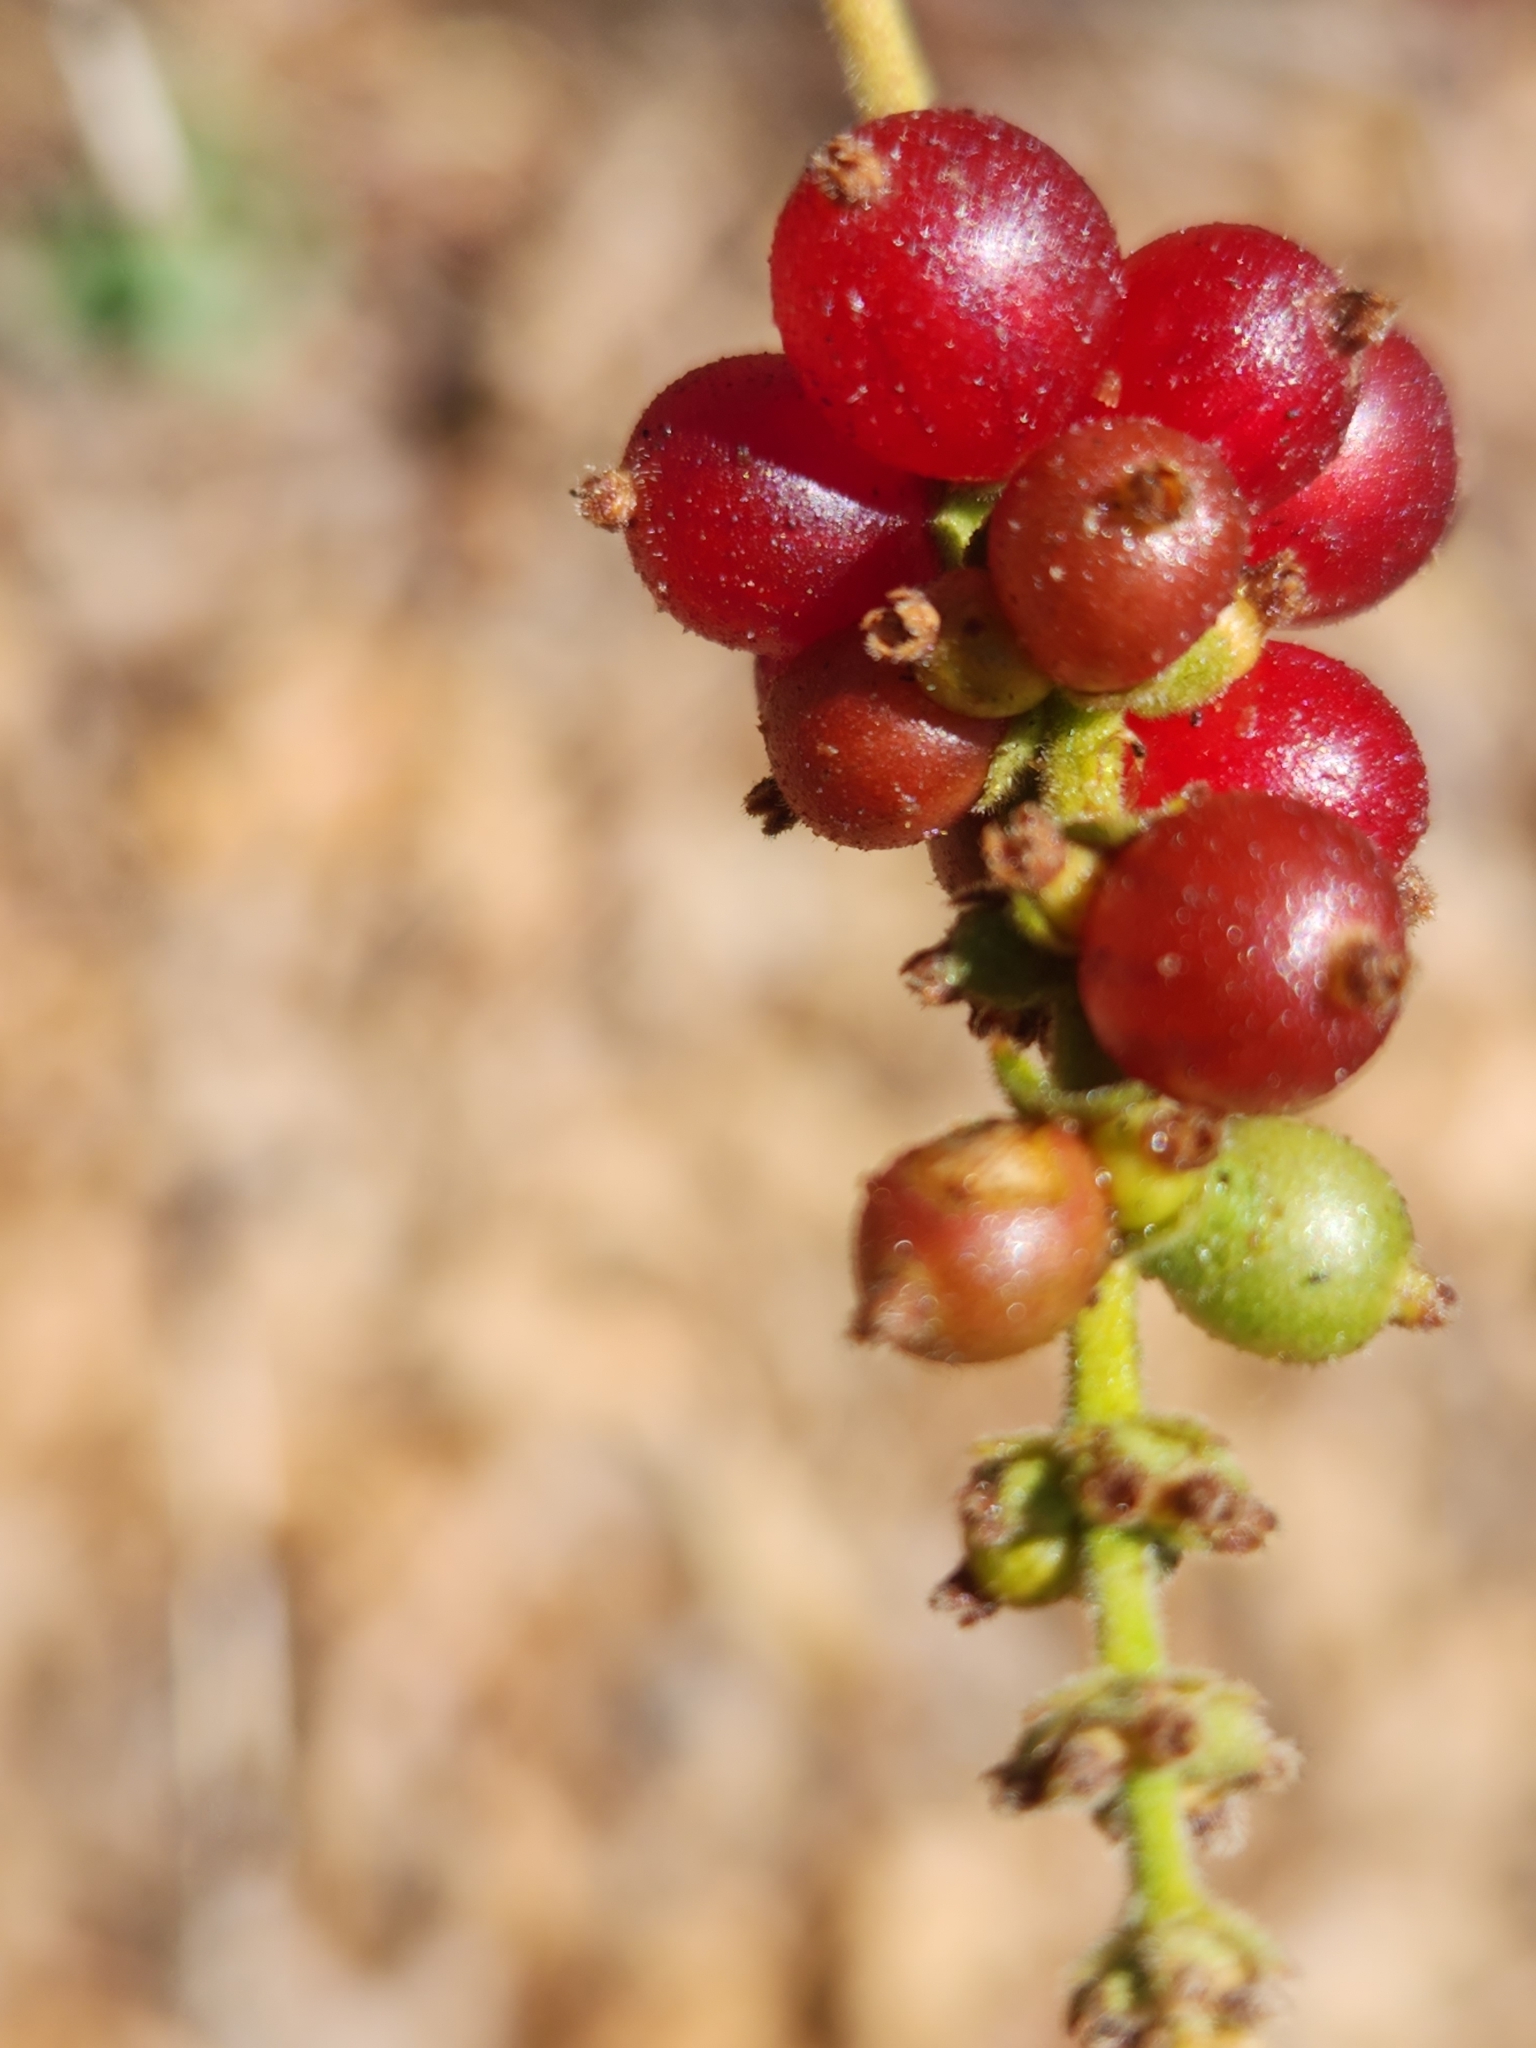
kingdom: Plantae
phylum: Tracheophyta
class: Magnoliopsida
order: Dipsacales
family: Caprifoliaceae
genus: Lonicera
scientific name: Lonicera interrupta
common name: Chaparral honeysuckle
